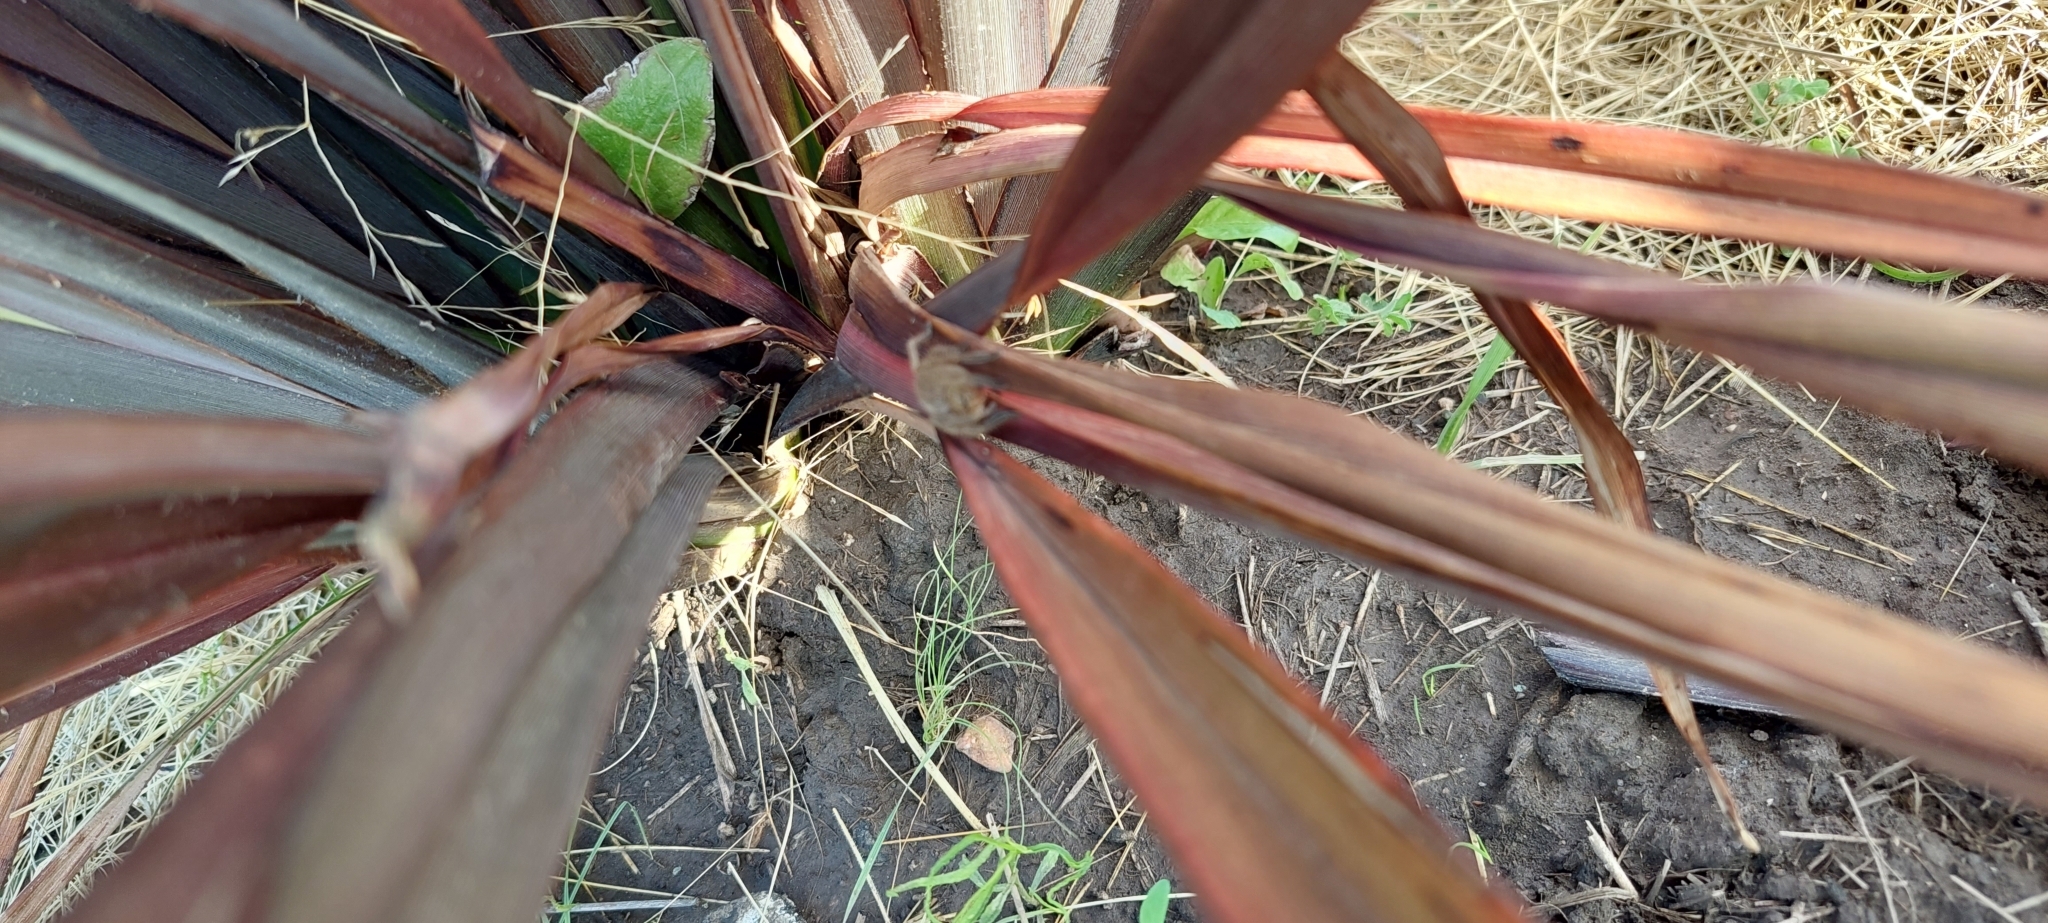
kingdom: Animalia
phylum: Arthropoda
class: Arachnida
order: Araneae
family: Sparassidae
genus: Polybetes
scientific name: Polybetes pallidus
